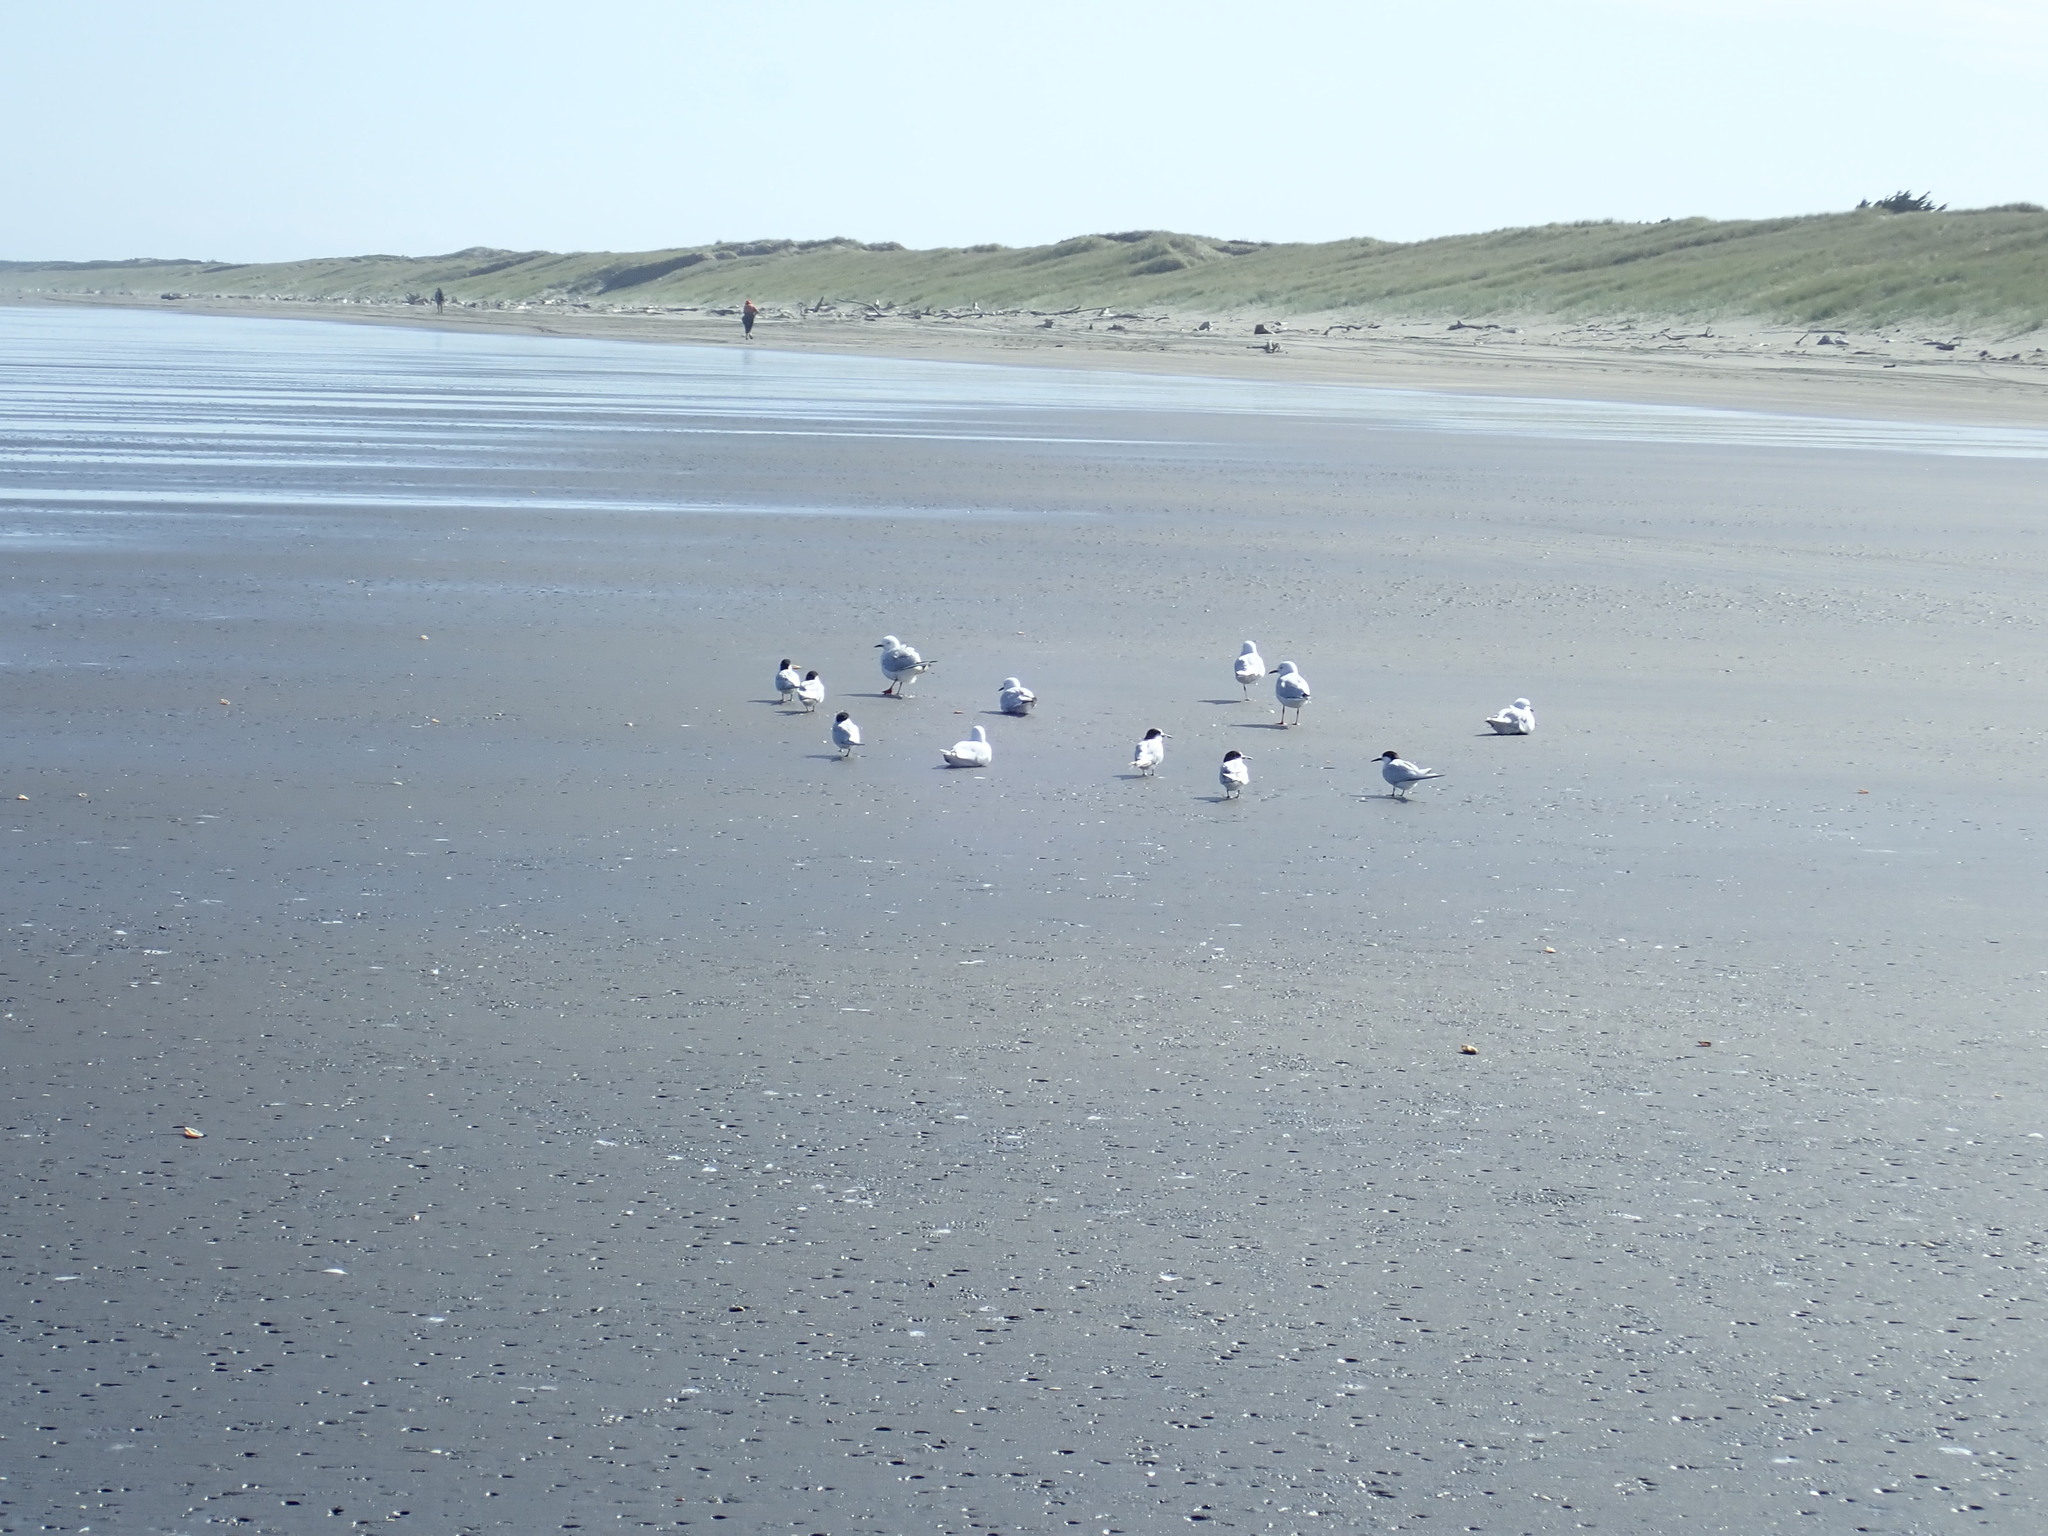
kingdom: Animalia
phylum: Chordata
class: Aves
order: Charadriiformes
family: Laridae
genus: Sterna
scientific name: Sterna striata
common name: White-fronted tern
